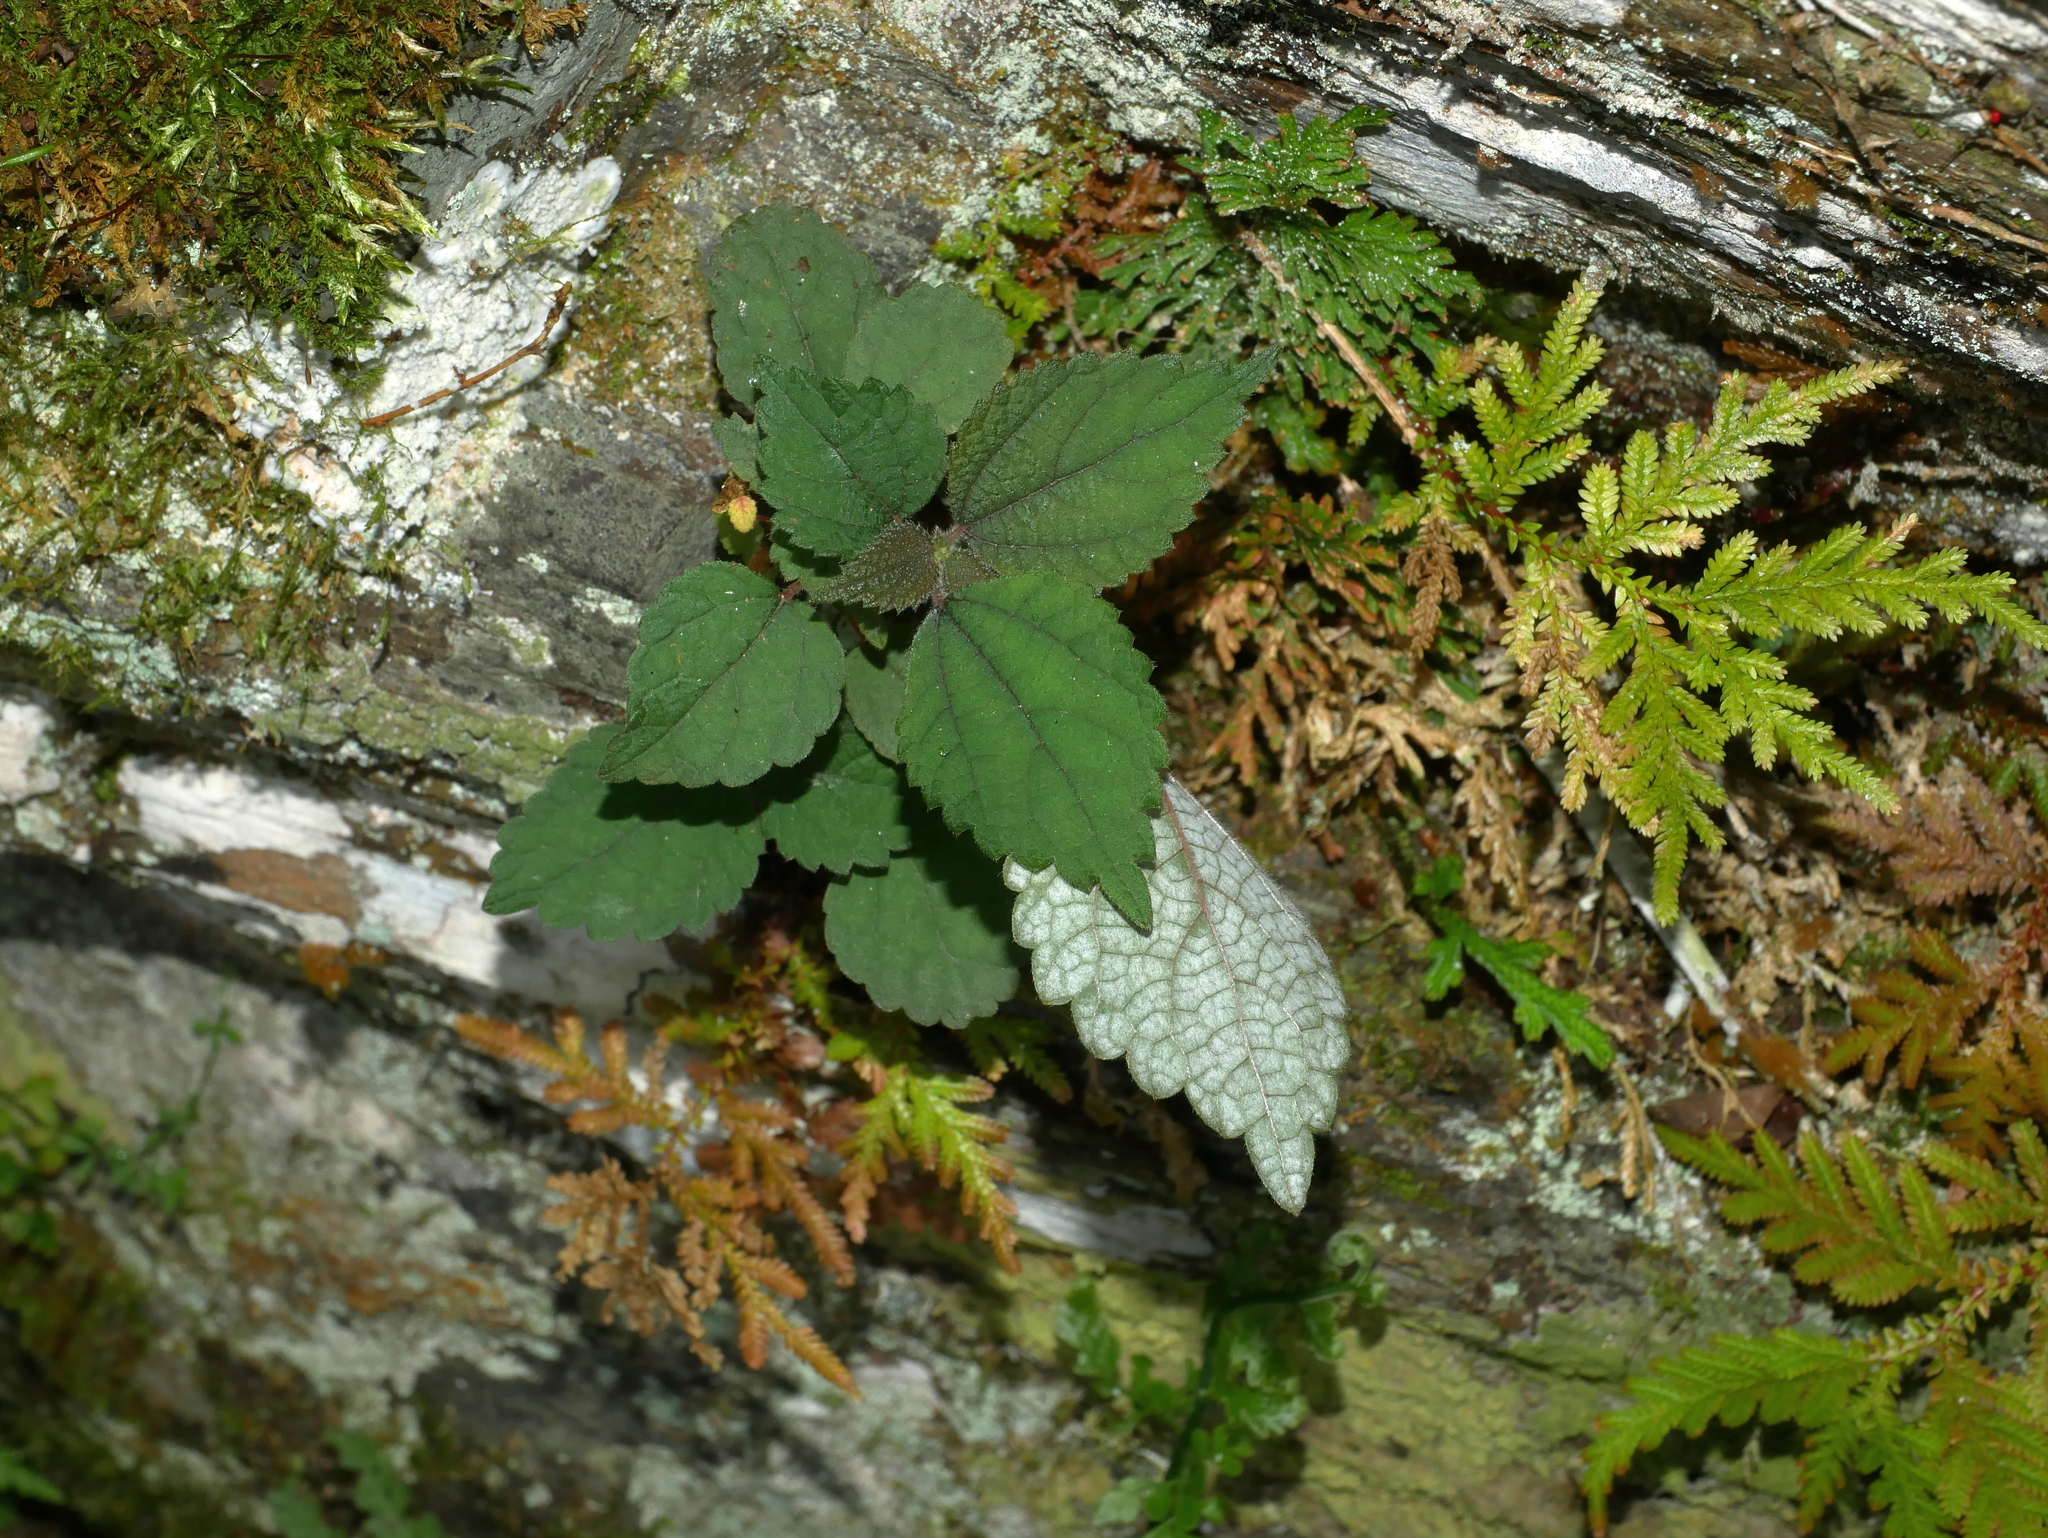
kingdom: Plantae
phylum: Tracheophyta
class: Magnoliopsida
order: Rosales
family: Urticaceae
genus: Boehmeria
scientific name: Boehmeria nivea
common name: Ramie chinese grass
